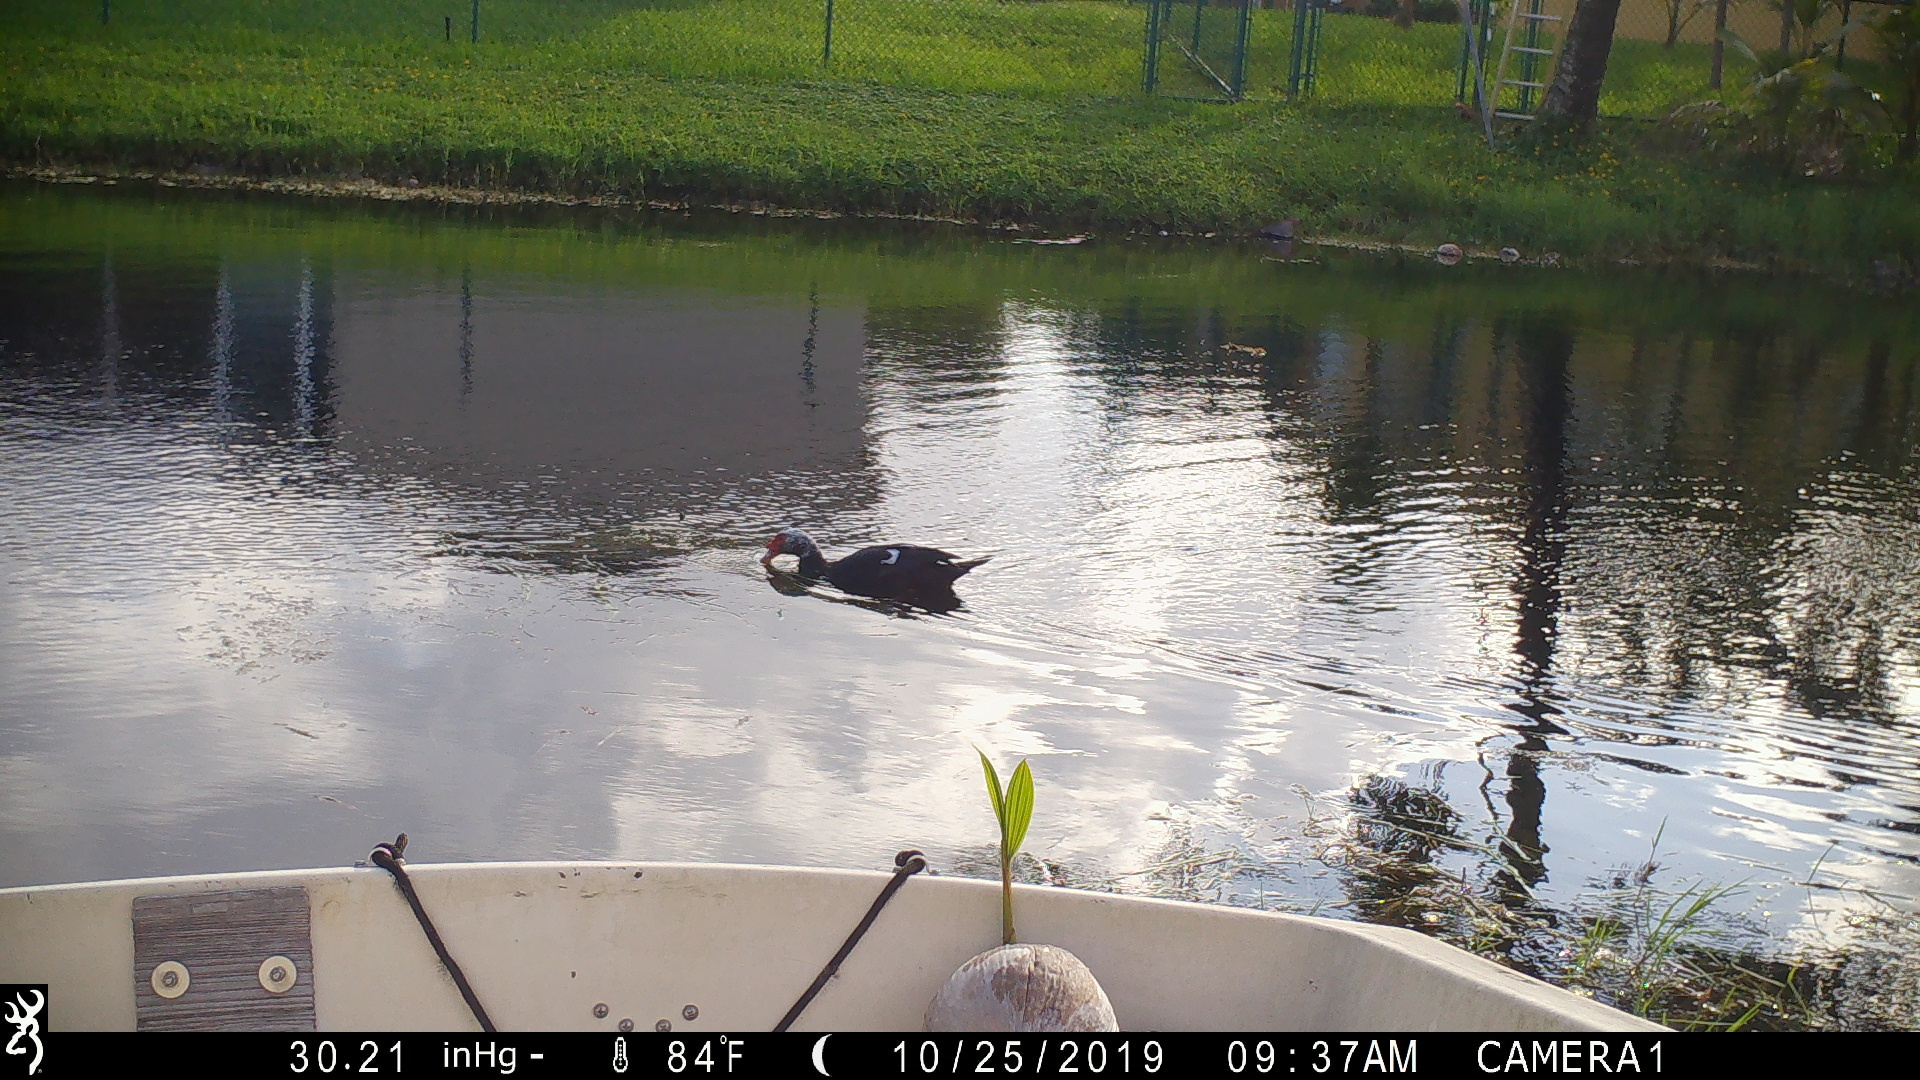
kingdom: Animalia
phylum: Chordata
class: Aves
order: Anseriformes
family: Anatidae
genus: Cairina
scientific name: Cairina moschata
